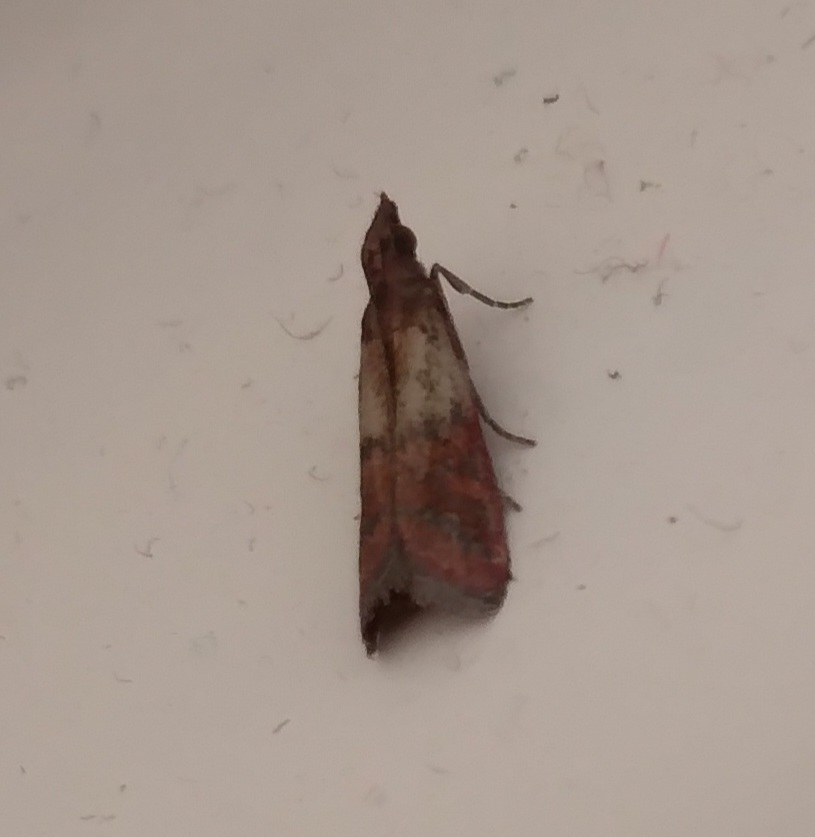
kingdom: Animalia
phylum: Arthropoda
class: Insecta
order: Lepidoptera
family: Pyralidae
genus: Plodia
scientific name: Plodia interpunctella
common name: Indian meal moth
